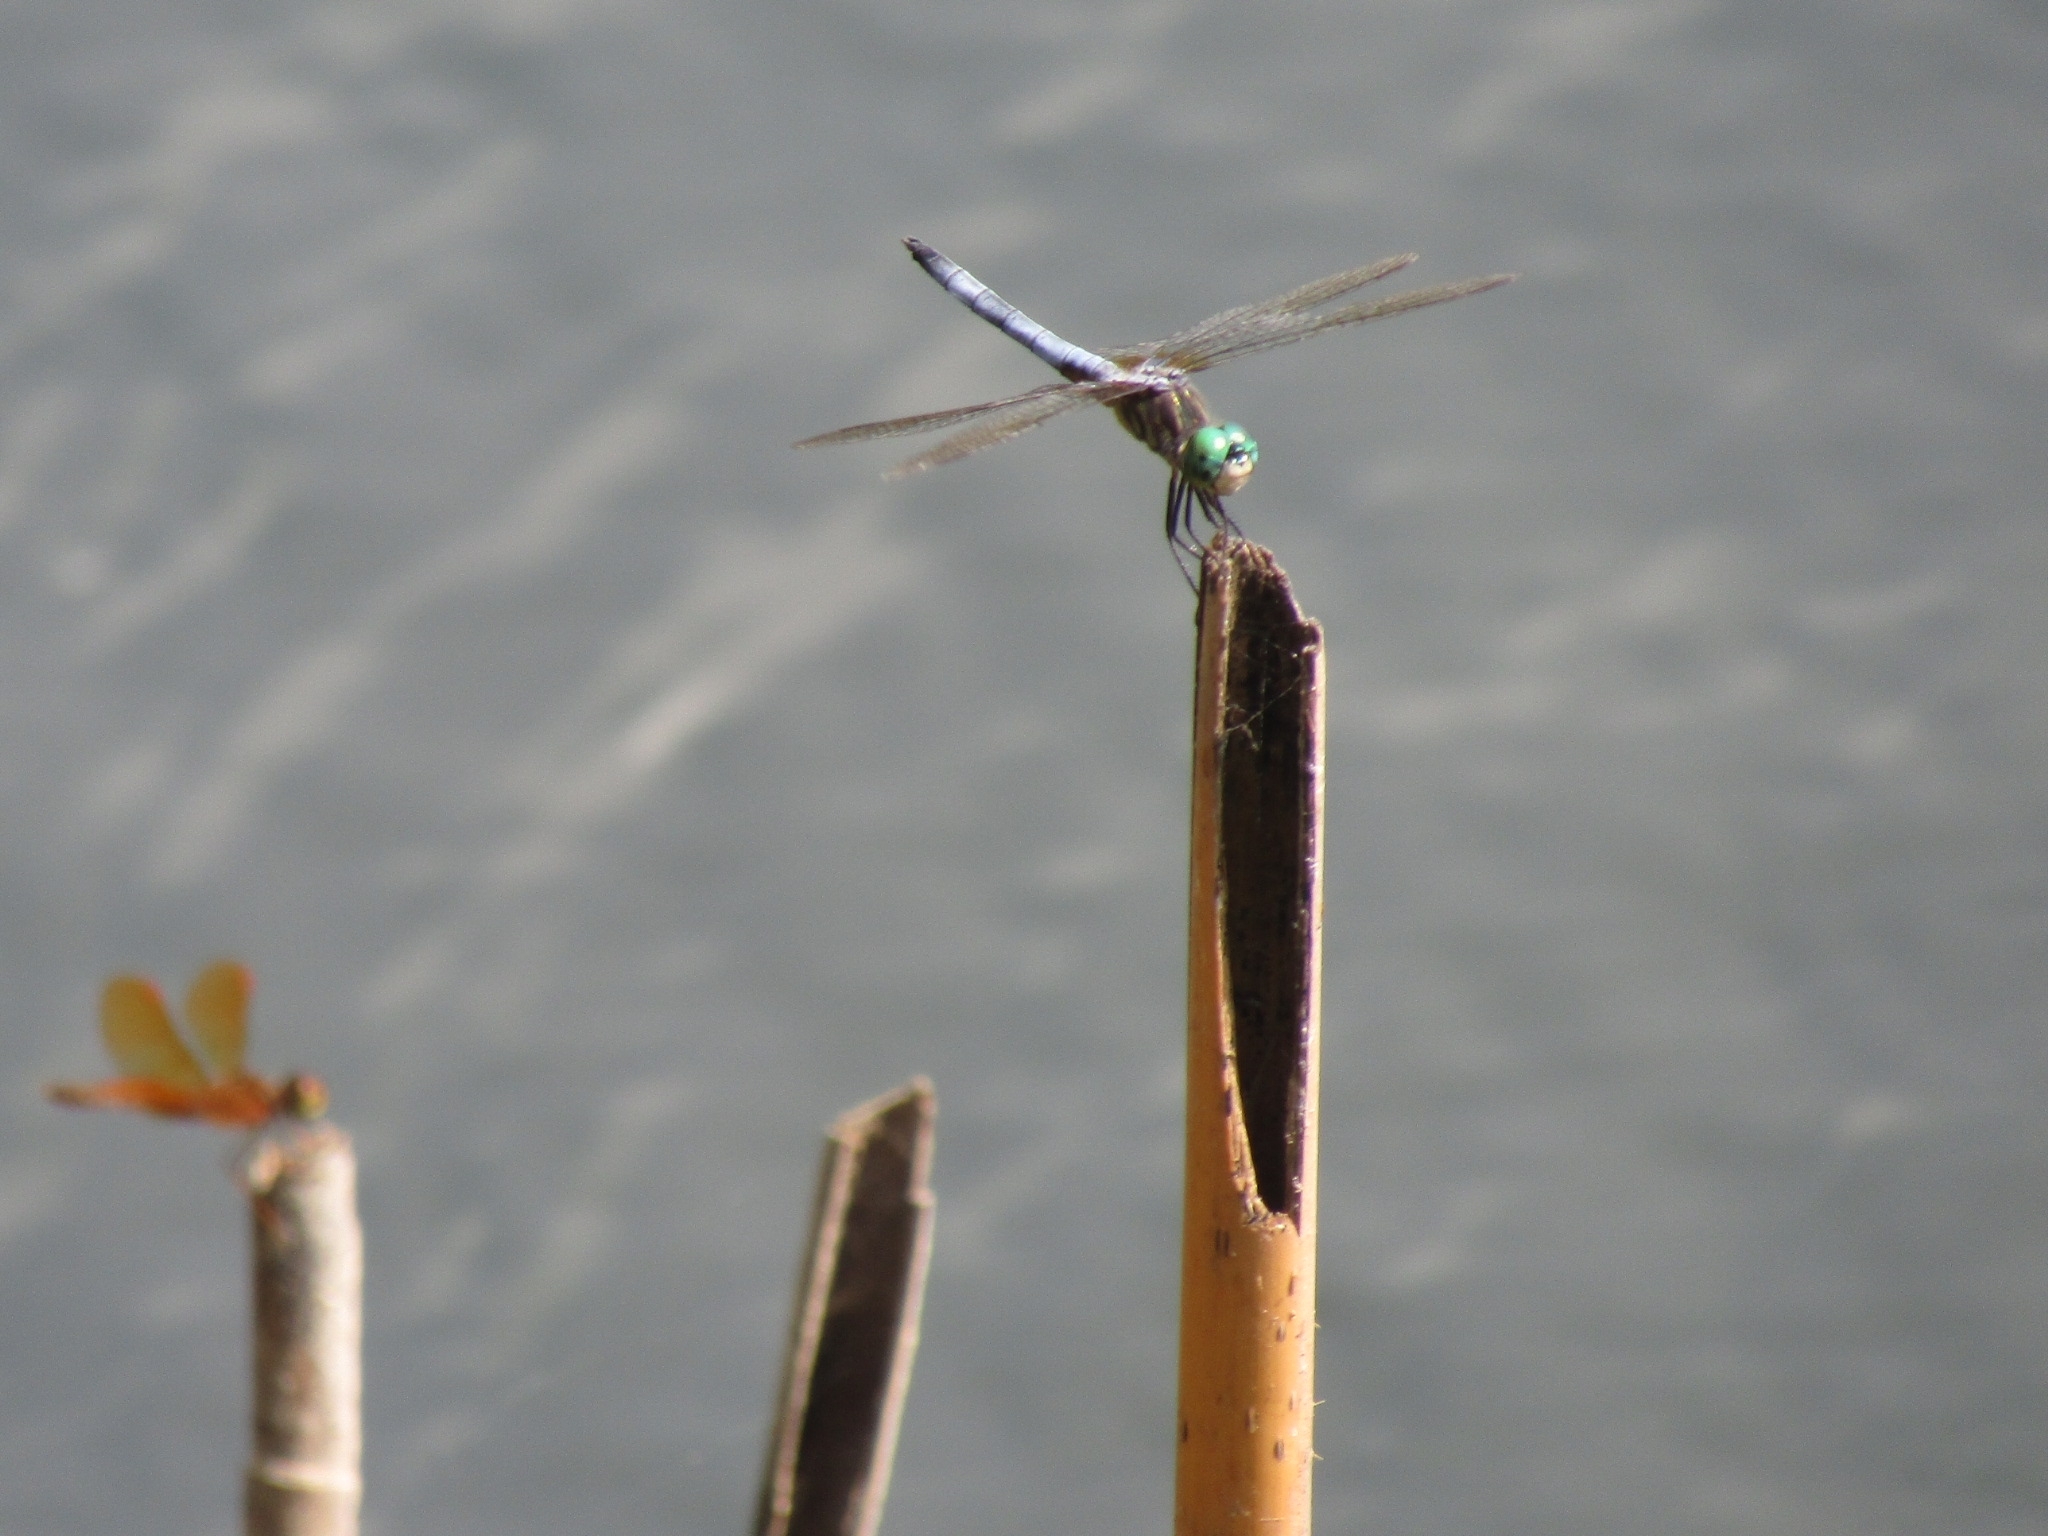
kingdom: Animalia
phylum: Arthropoda
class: Insecta
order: Odonata
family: Libellulidae
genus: Pachydiplax
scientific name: Pachydiplax longipennis
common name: Blue dasher
